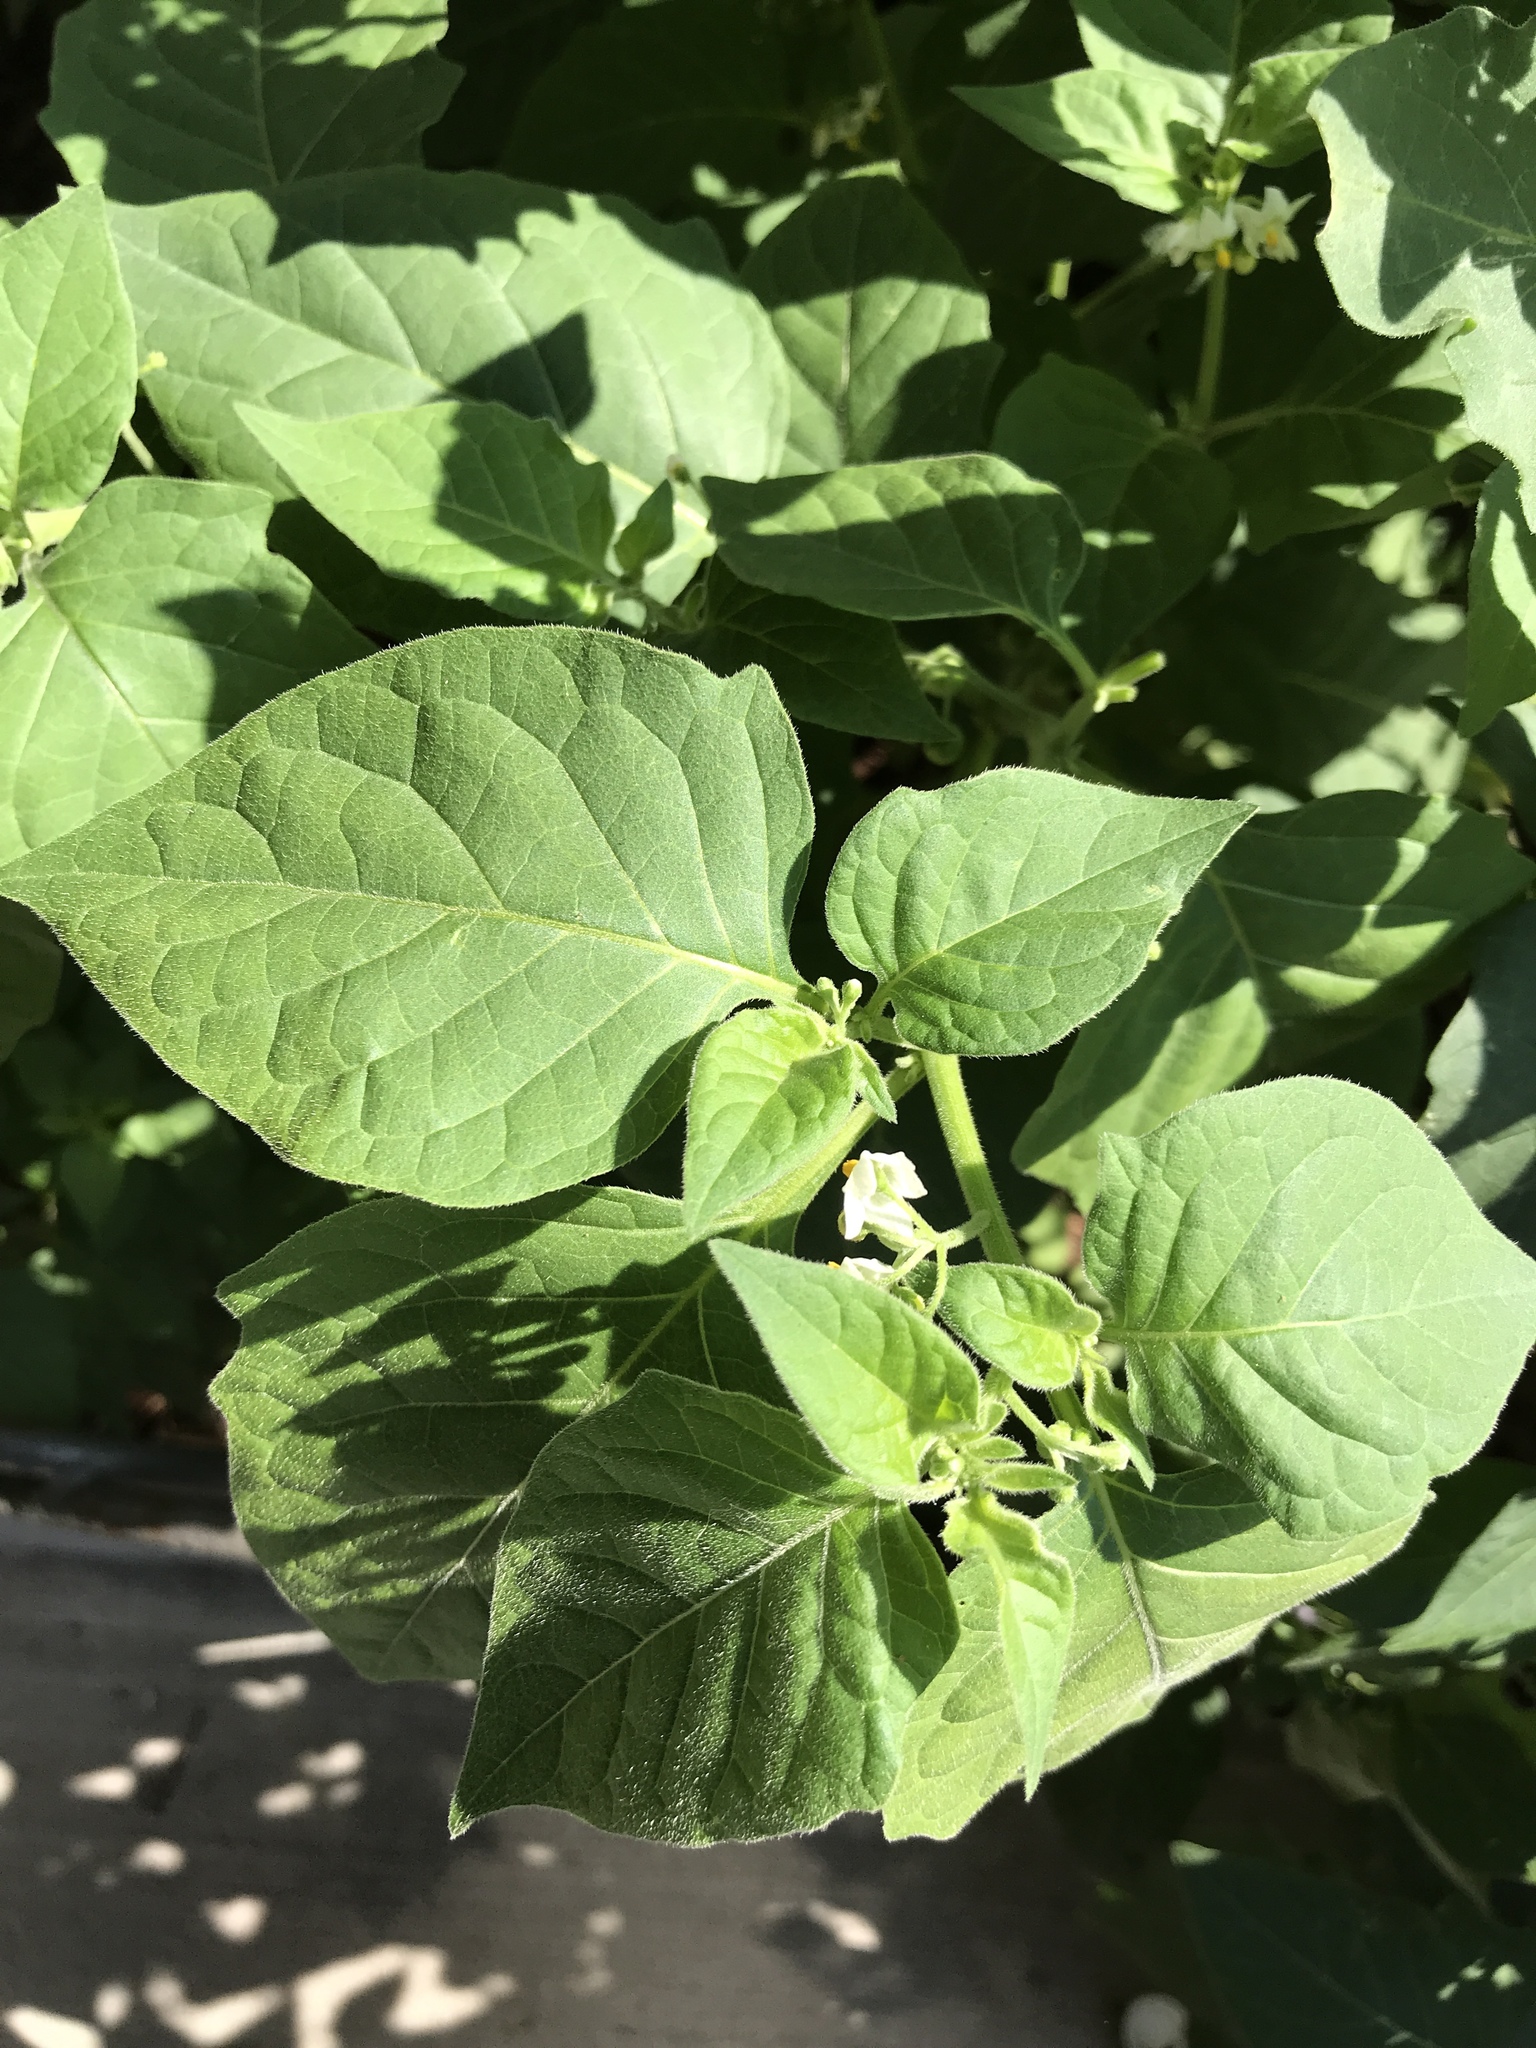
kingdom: Plantae
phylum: Tracheophyta
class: Magnoliopsida
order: Solanales
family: Solanaceae
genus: Solanum
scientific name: Solanum nigrum
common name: Black nightshade
